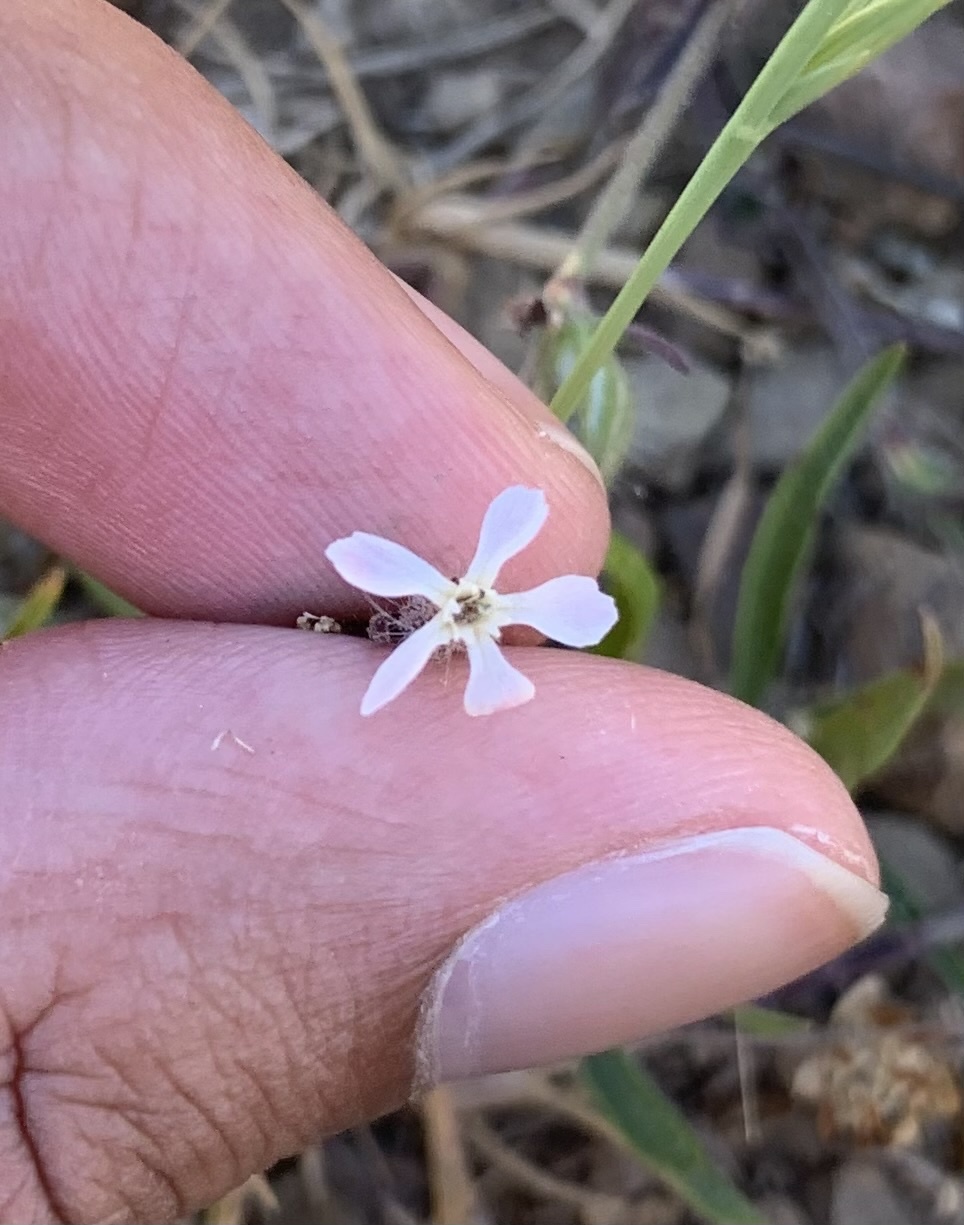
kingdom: Plantae
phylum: Tracheophyta
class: Magnoliopsida
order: Caryophyllales
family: Caryophyllaceae
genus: Silene
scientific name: Silene gallica
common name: Small-flowered catchfly
